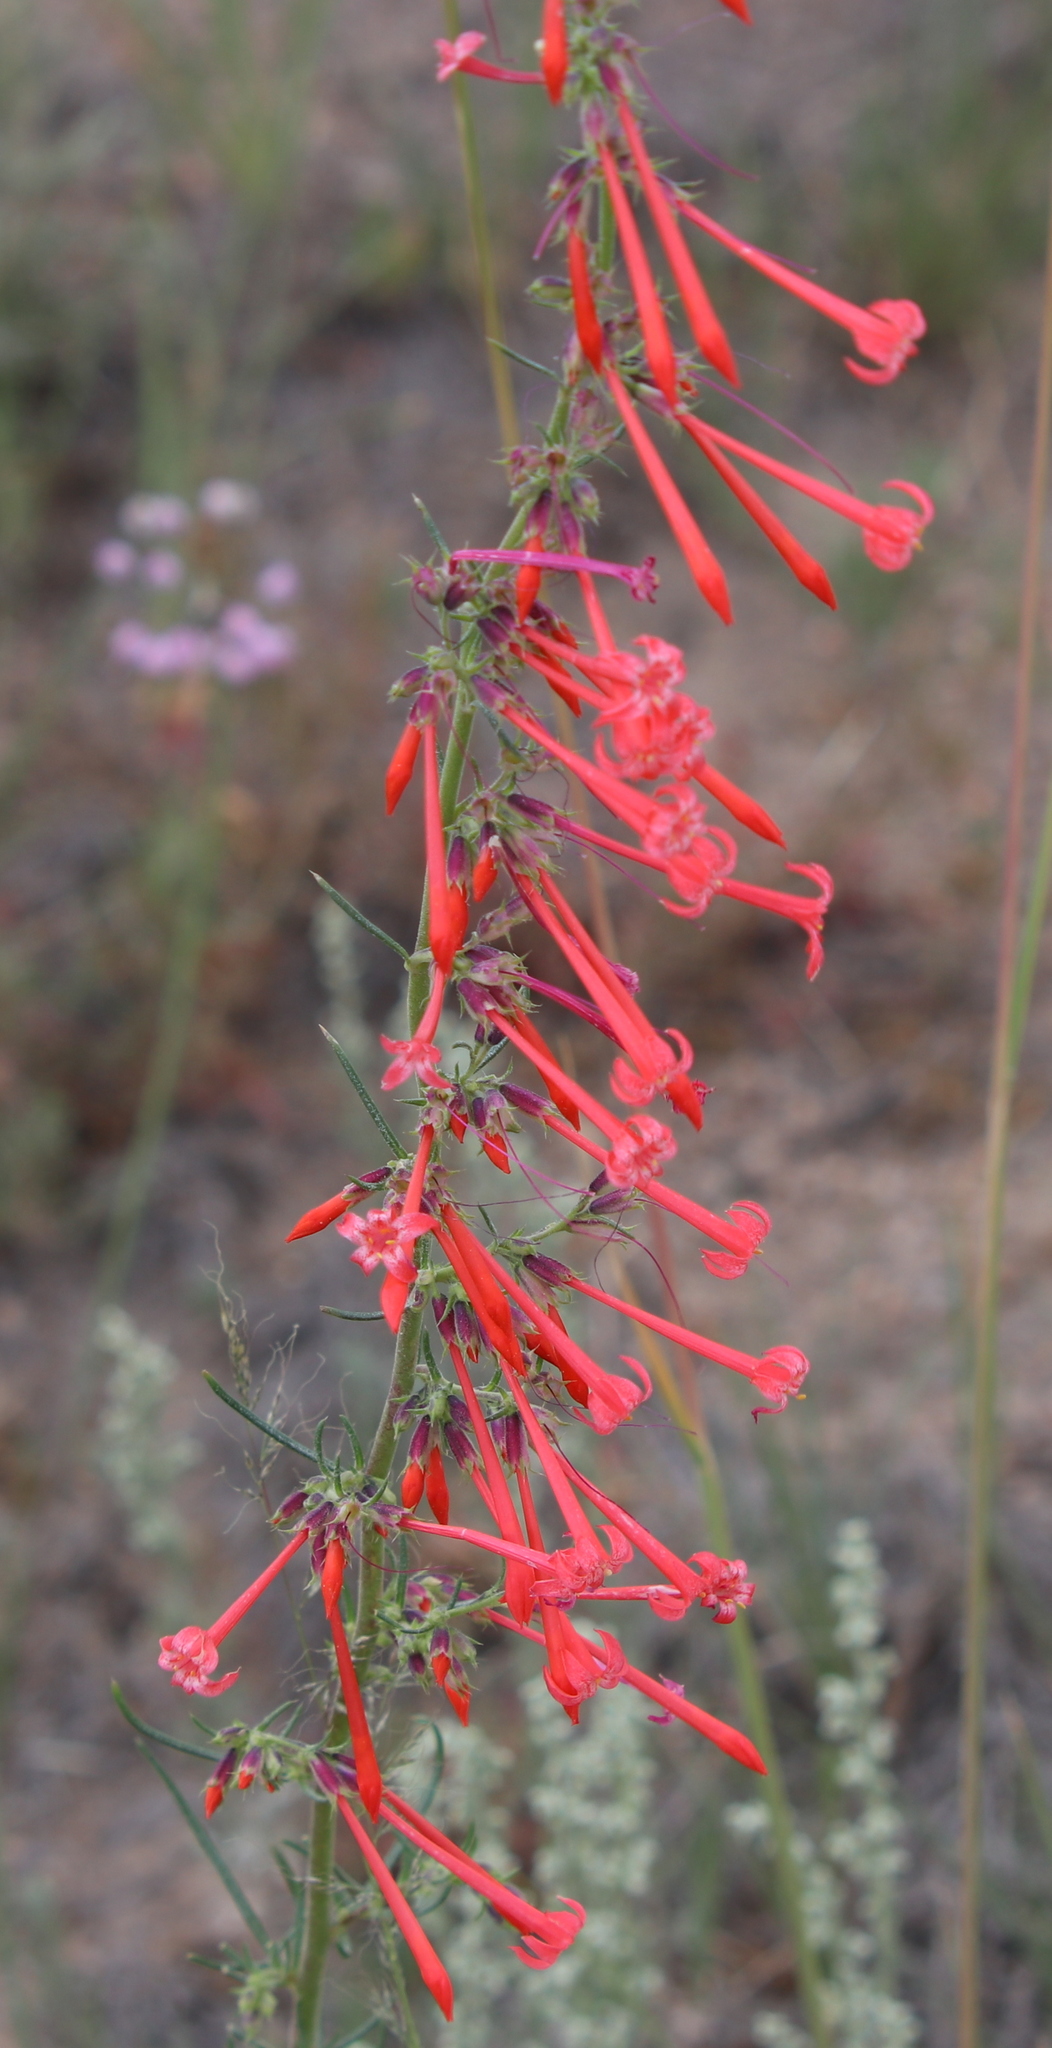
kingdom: Plantae
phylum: Tracheophyta
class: Magnoliopsida
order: Ericales
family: Polemoniaceae
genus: Ipomopsis
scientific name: Ipomopsis aggregata
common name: Scarlet gilia
